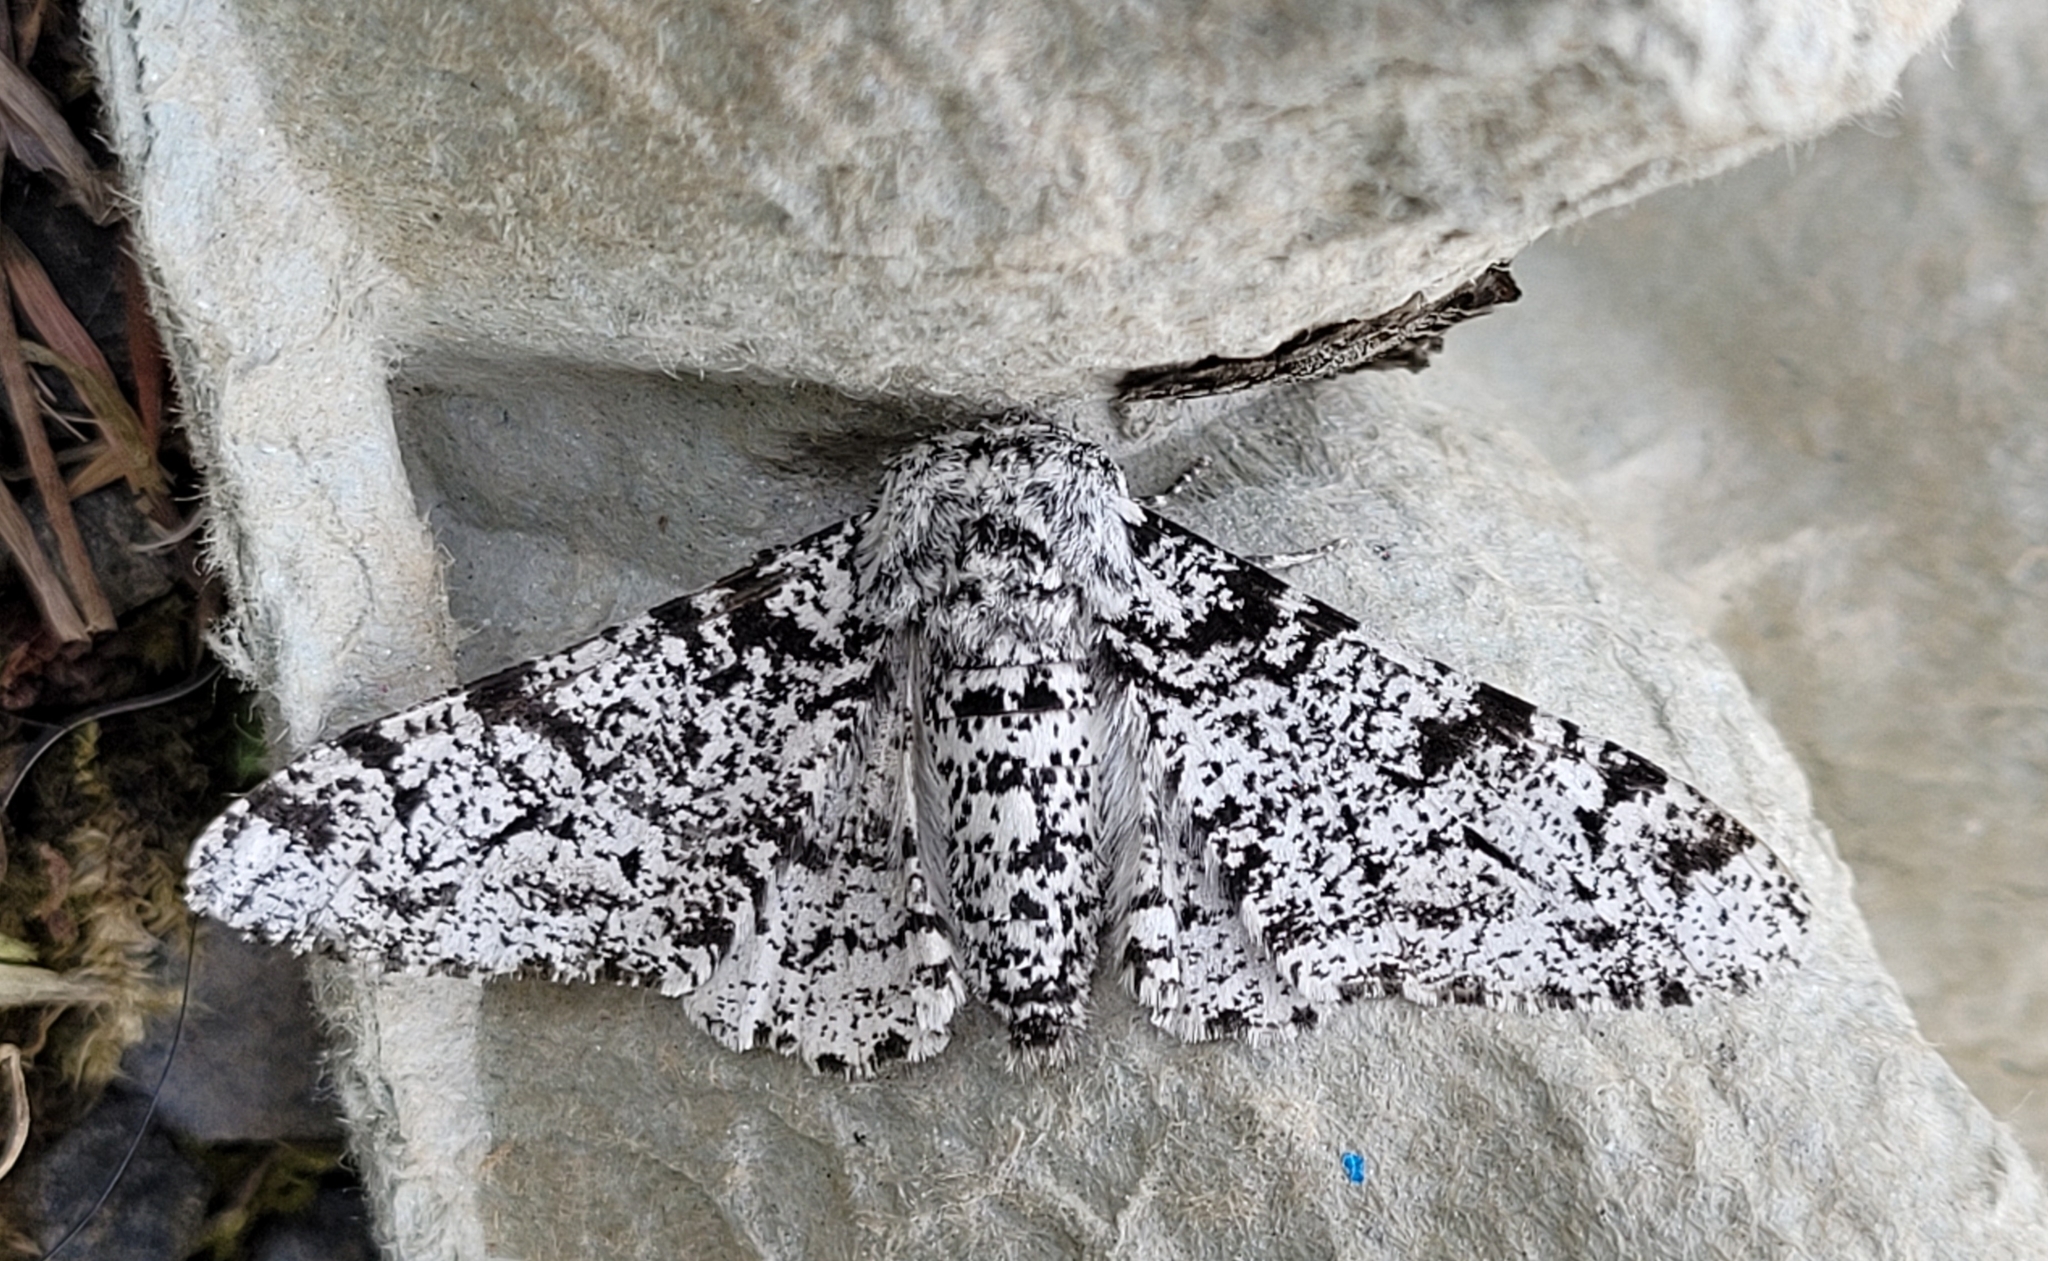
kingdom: Animalia
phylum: Arthropoda
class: Insecta
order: Lepidoptera
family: Geometridae
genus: Biston
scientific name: Biston betularia
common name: Peppered moth
